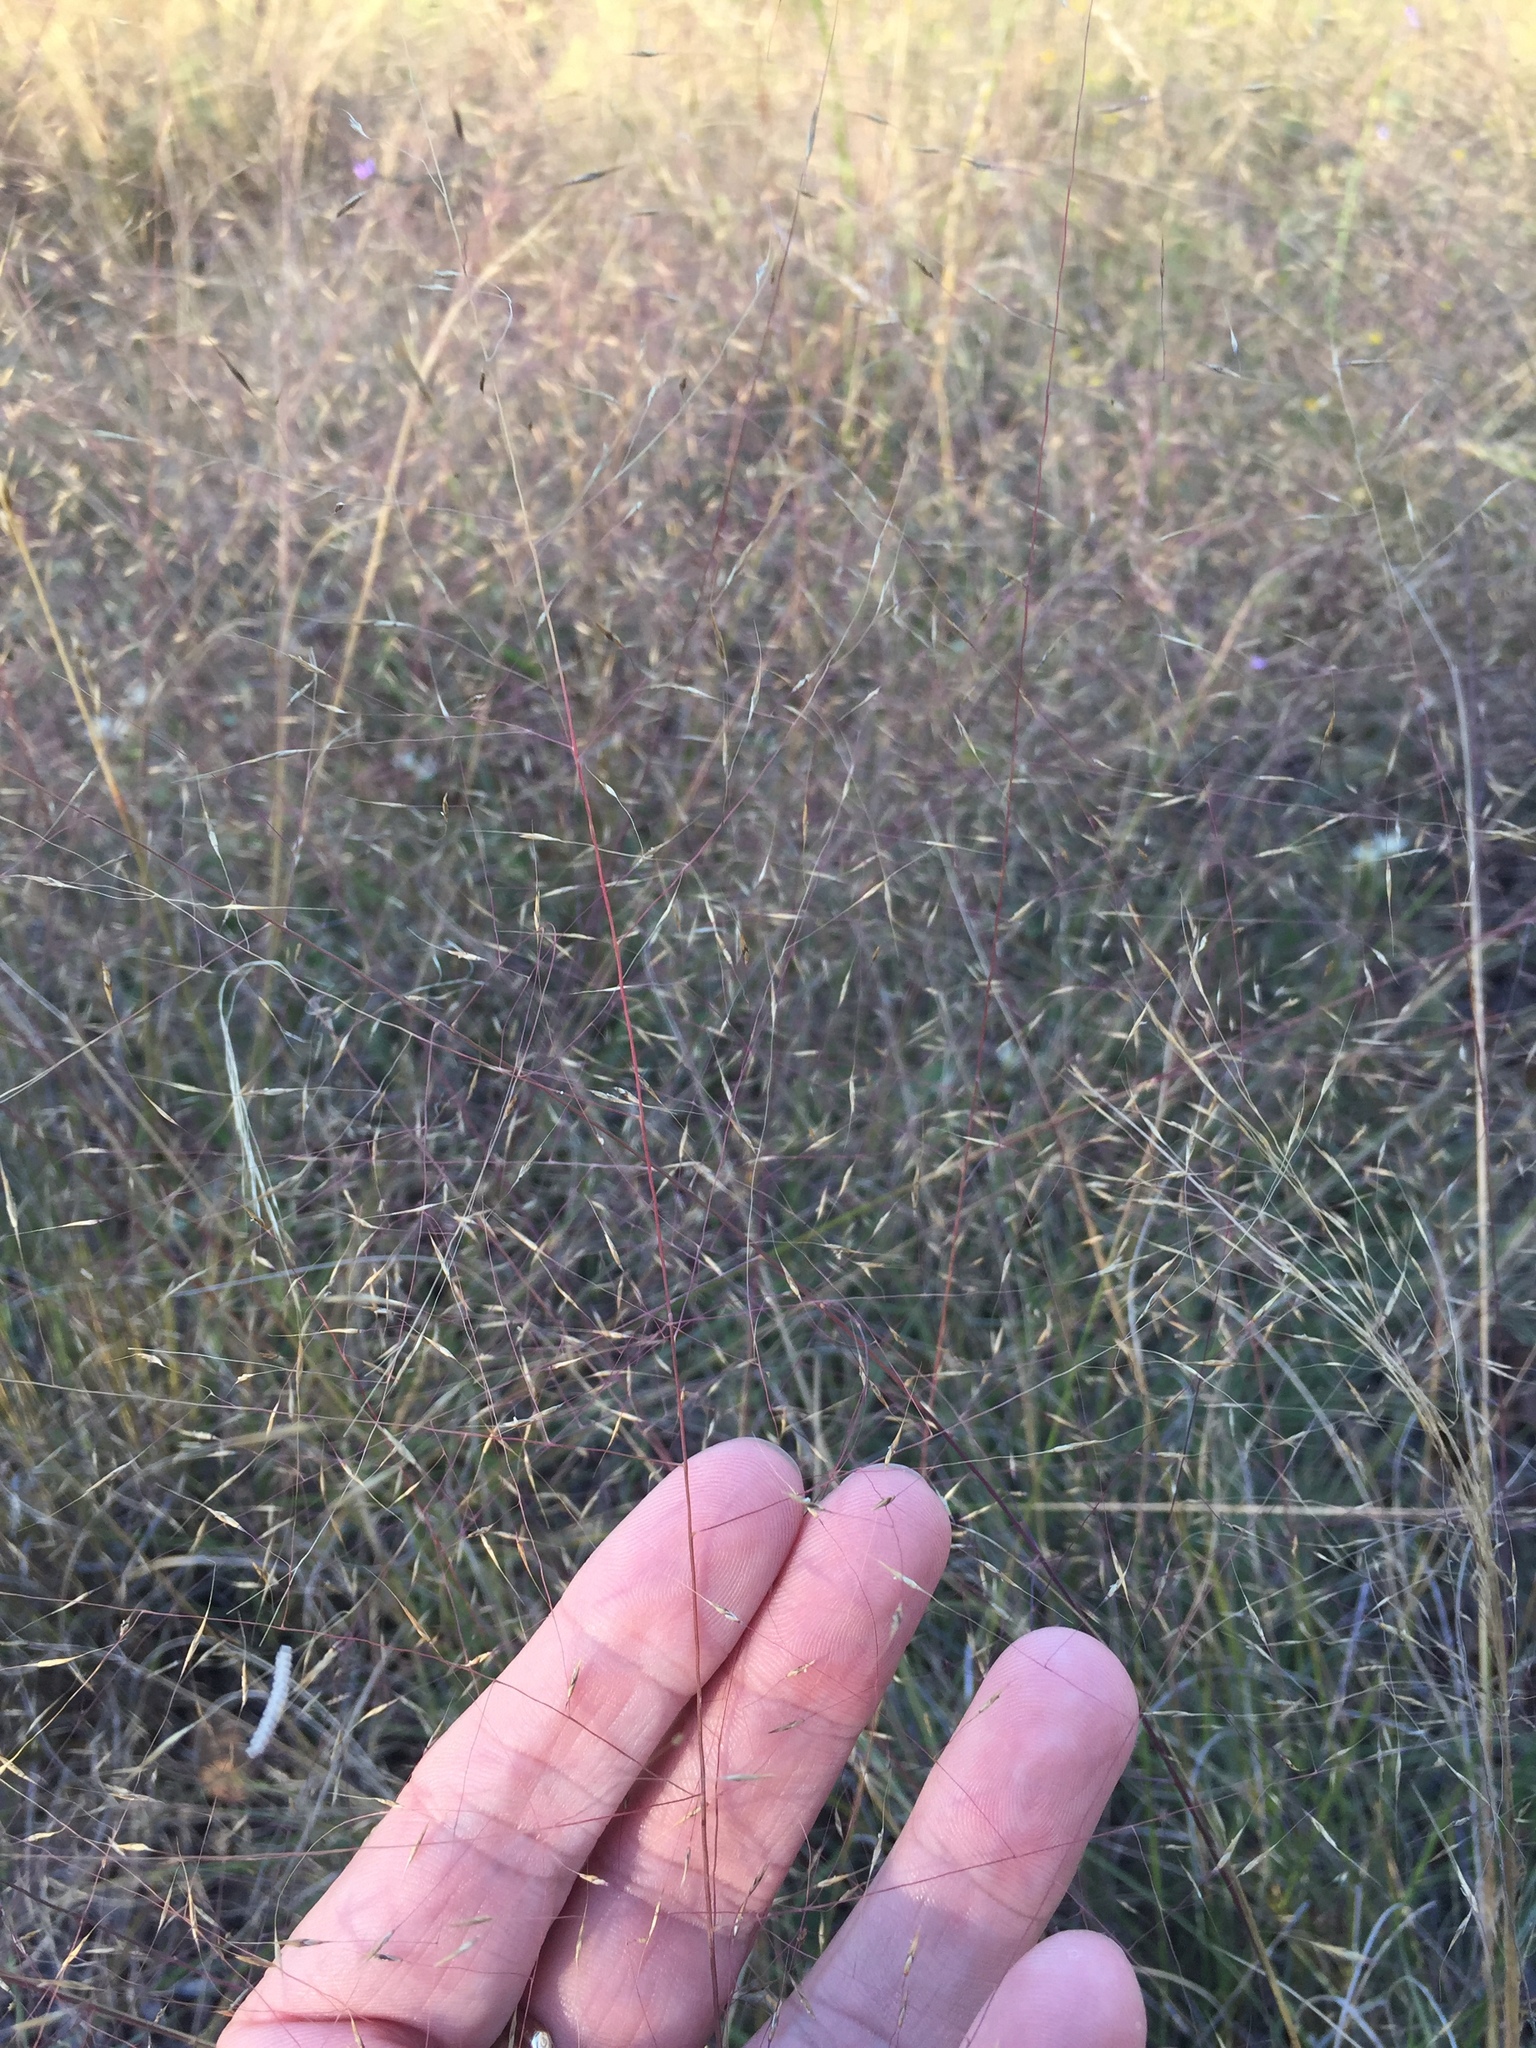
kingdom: Plantae
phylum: Tracheophyta
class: Liliopsida
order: Poales
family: Poaceae
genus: Muhlenbergia
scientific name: Muhlenbergia reverchonii
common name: Seep muhly
